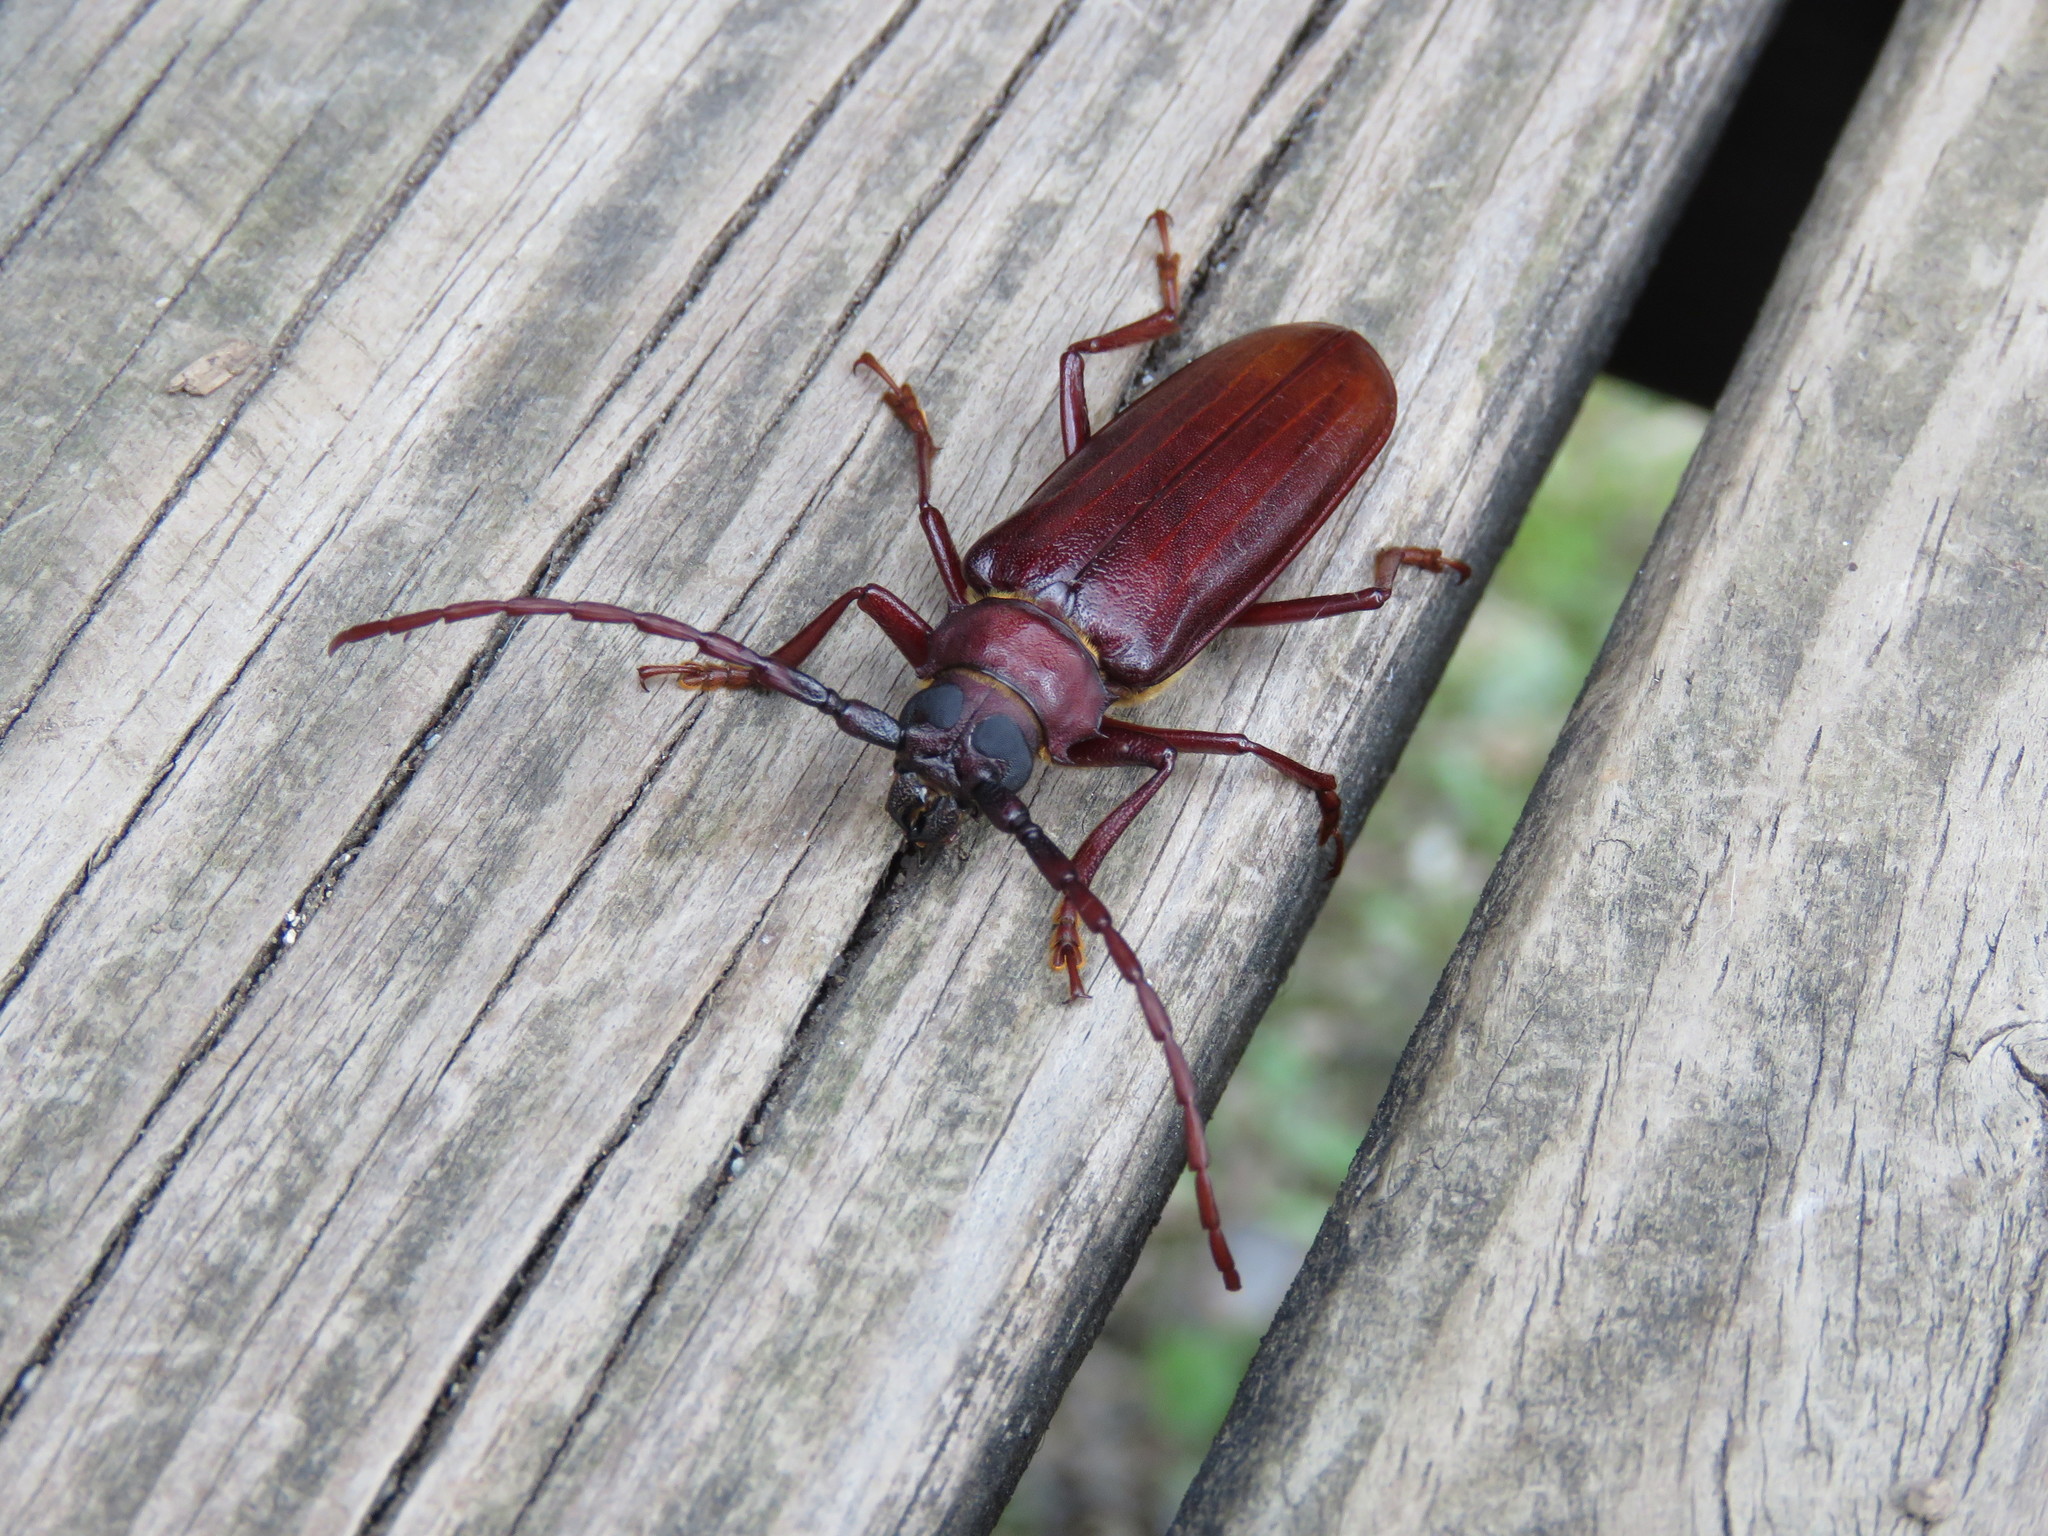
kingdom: Animalia
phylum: Arthropoda
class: Insecta
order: Coleoptera
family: Cerambycidae
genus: Orthosoma
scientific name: Orthosoma brunneum
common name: Brown prionid beetle
